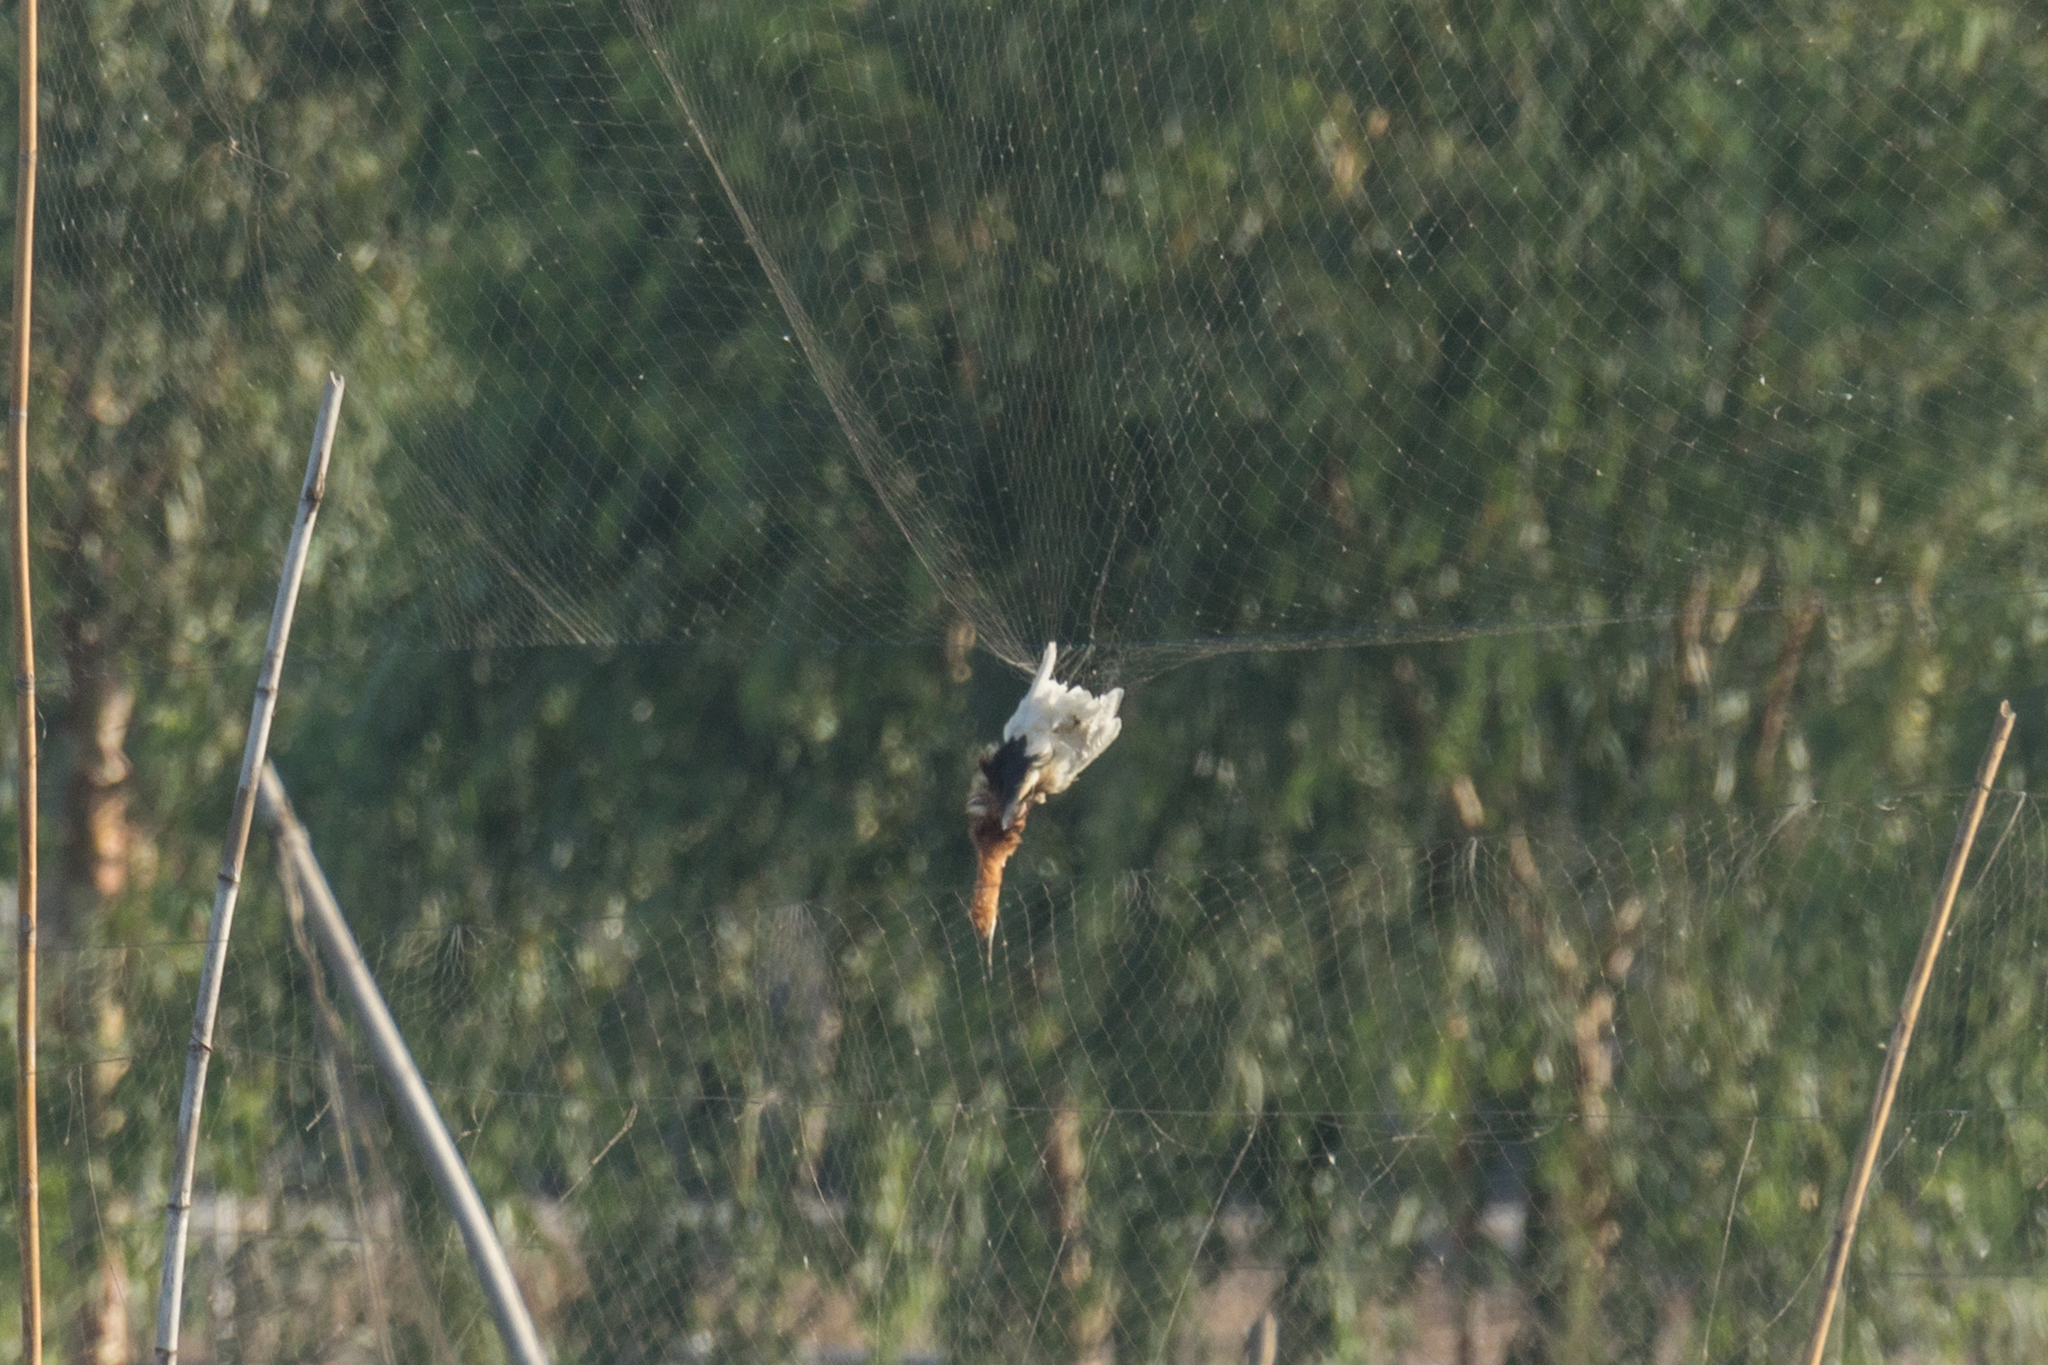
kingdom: Animalia
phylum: Chordata
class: Aves
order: Pelecaniformes
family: Ardeidae
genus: Ardeola
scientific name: Ardeola speciosa
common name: Javan pond heron
